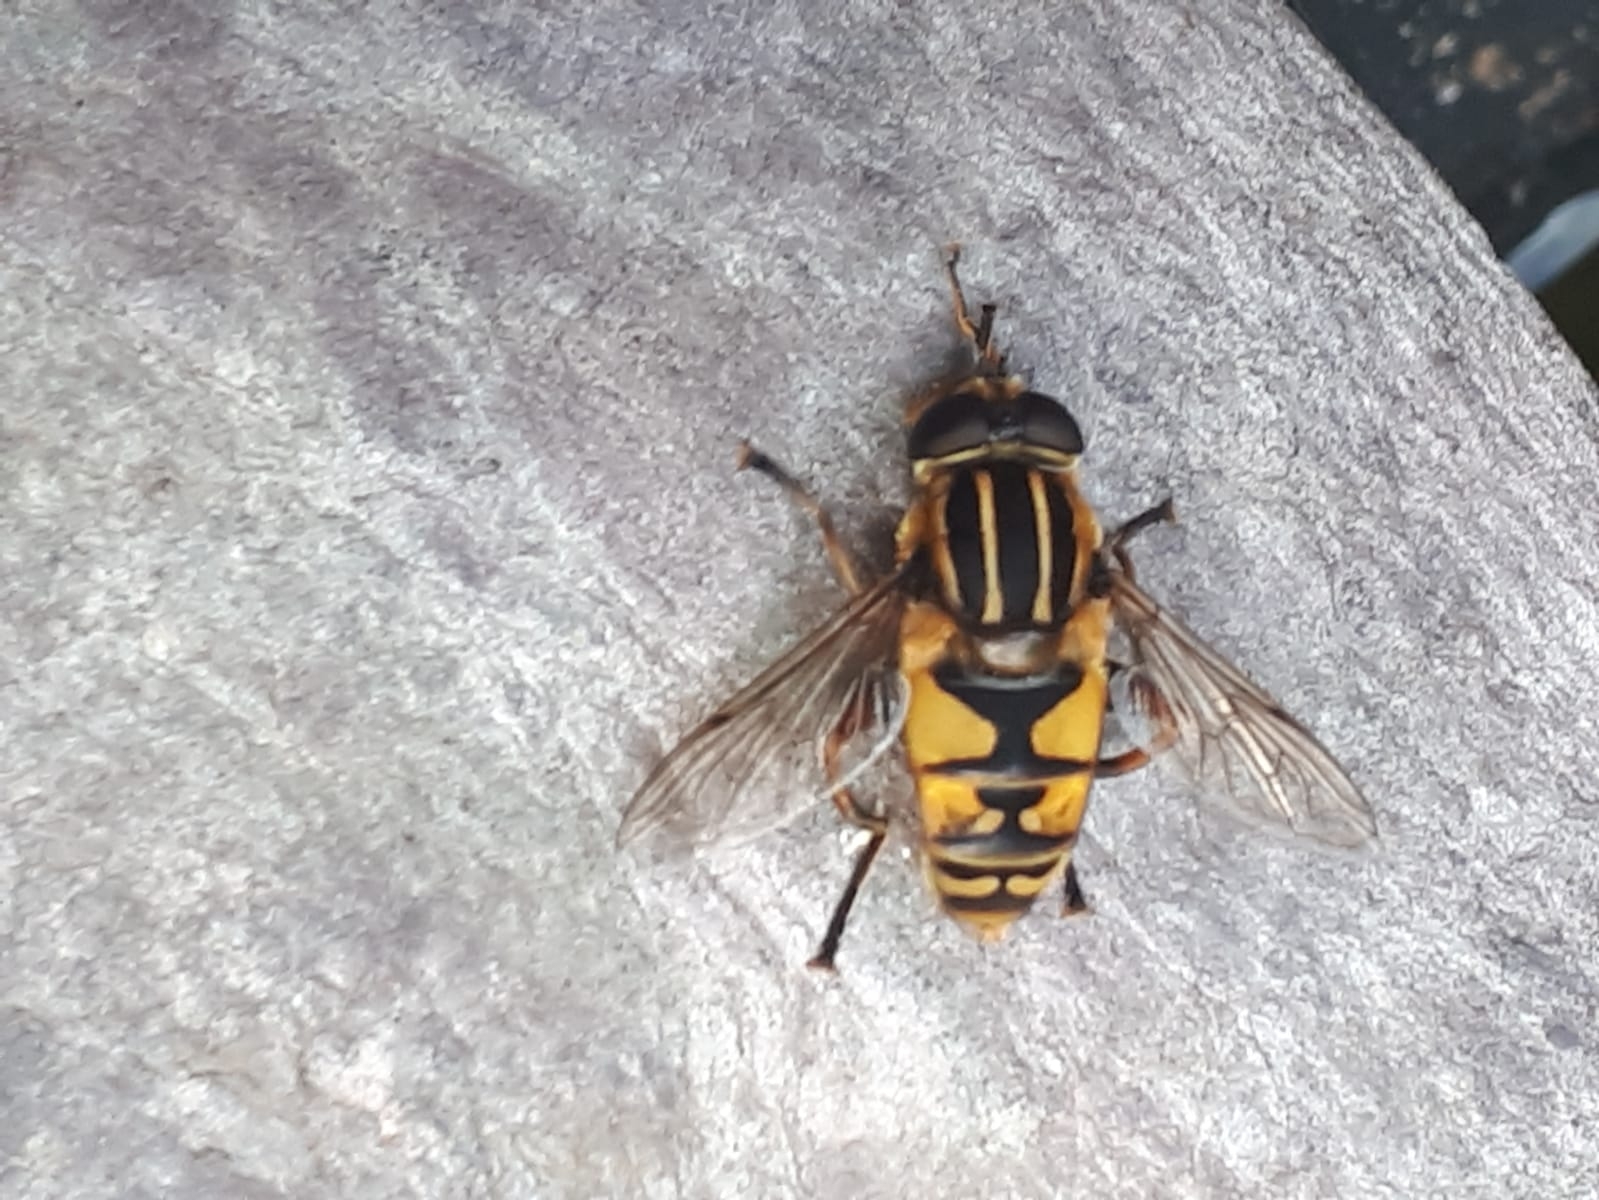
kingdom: Animalia
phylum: Arthropoda
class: Insecta
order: Diptera
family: Syrphidae
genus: Helophilus
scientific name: Helophilus pendulus
